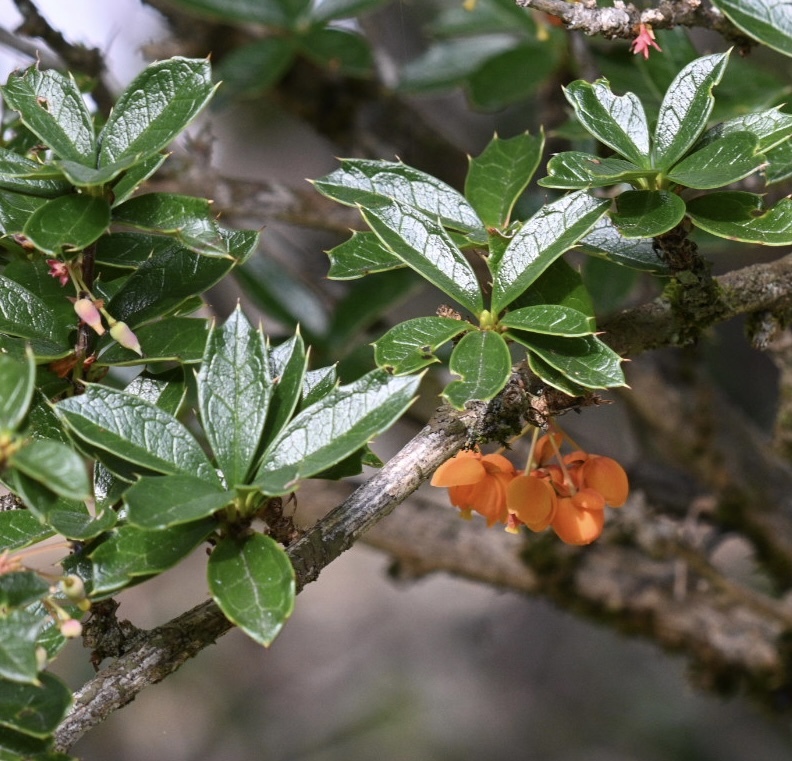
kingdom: Plantae
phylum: Tracheophyta
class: Magnoliopsida
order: Ranunculales
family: Berberidaceae
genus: Berberis
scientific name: Berberis ilicifolia
